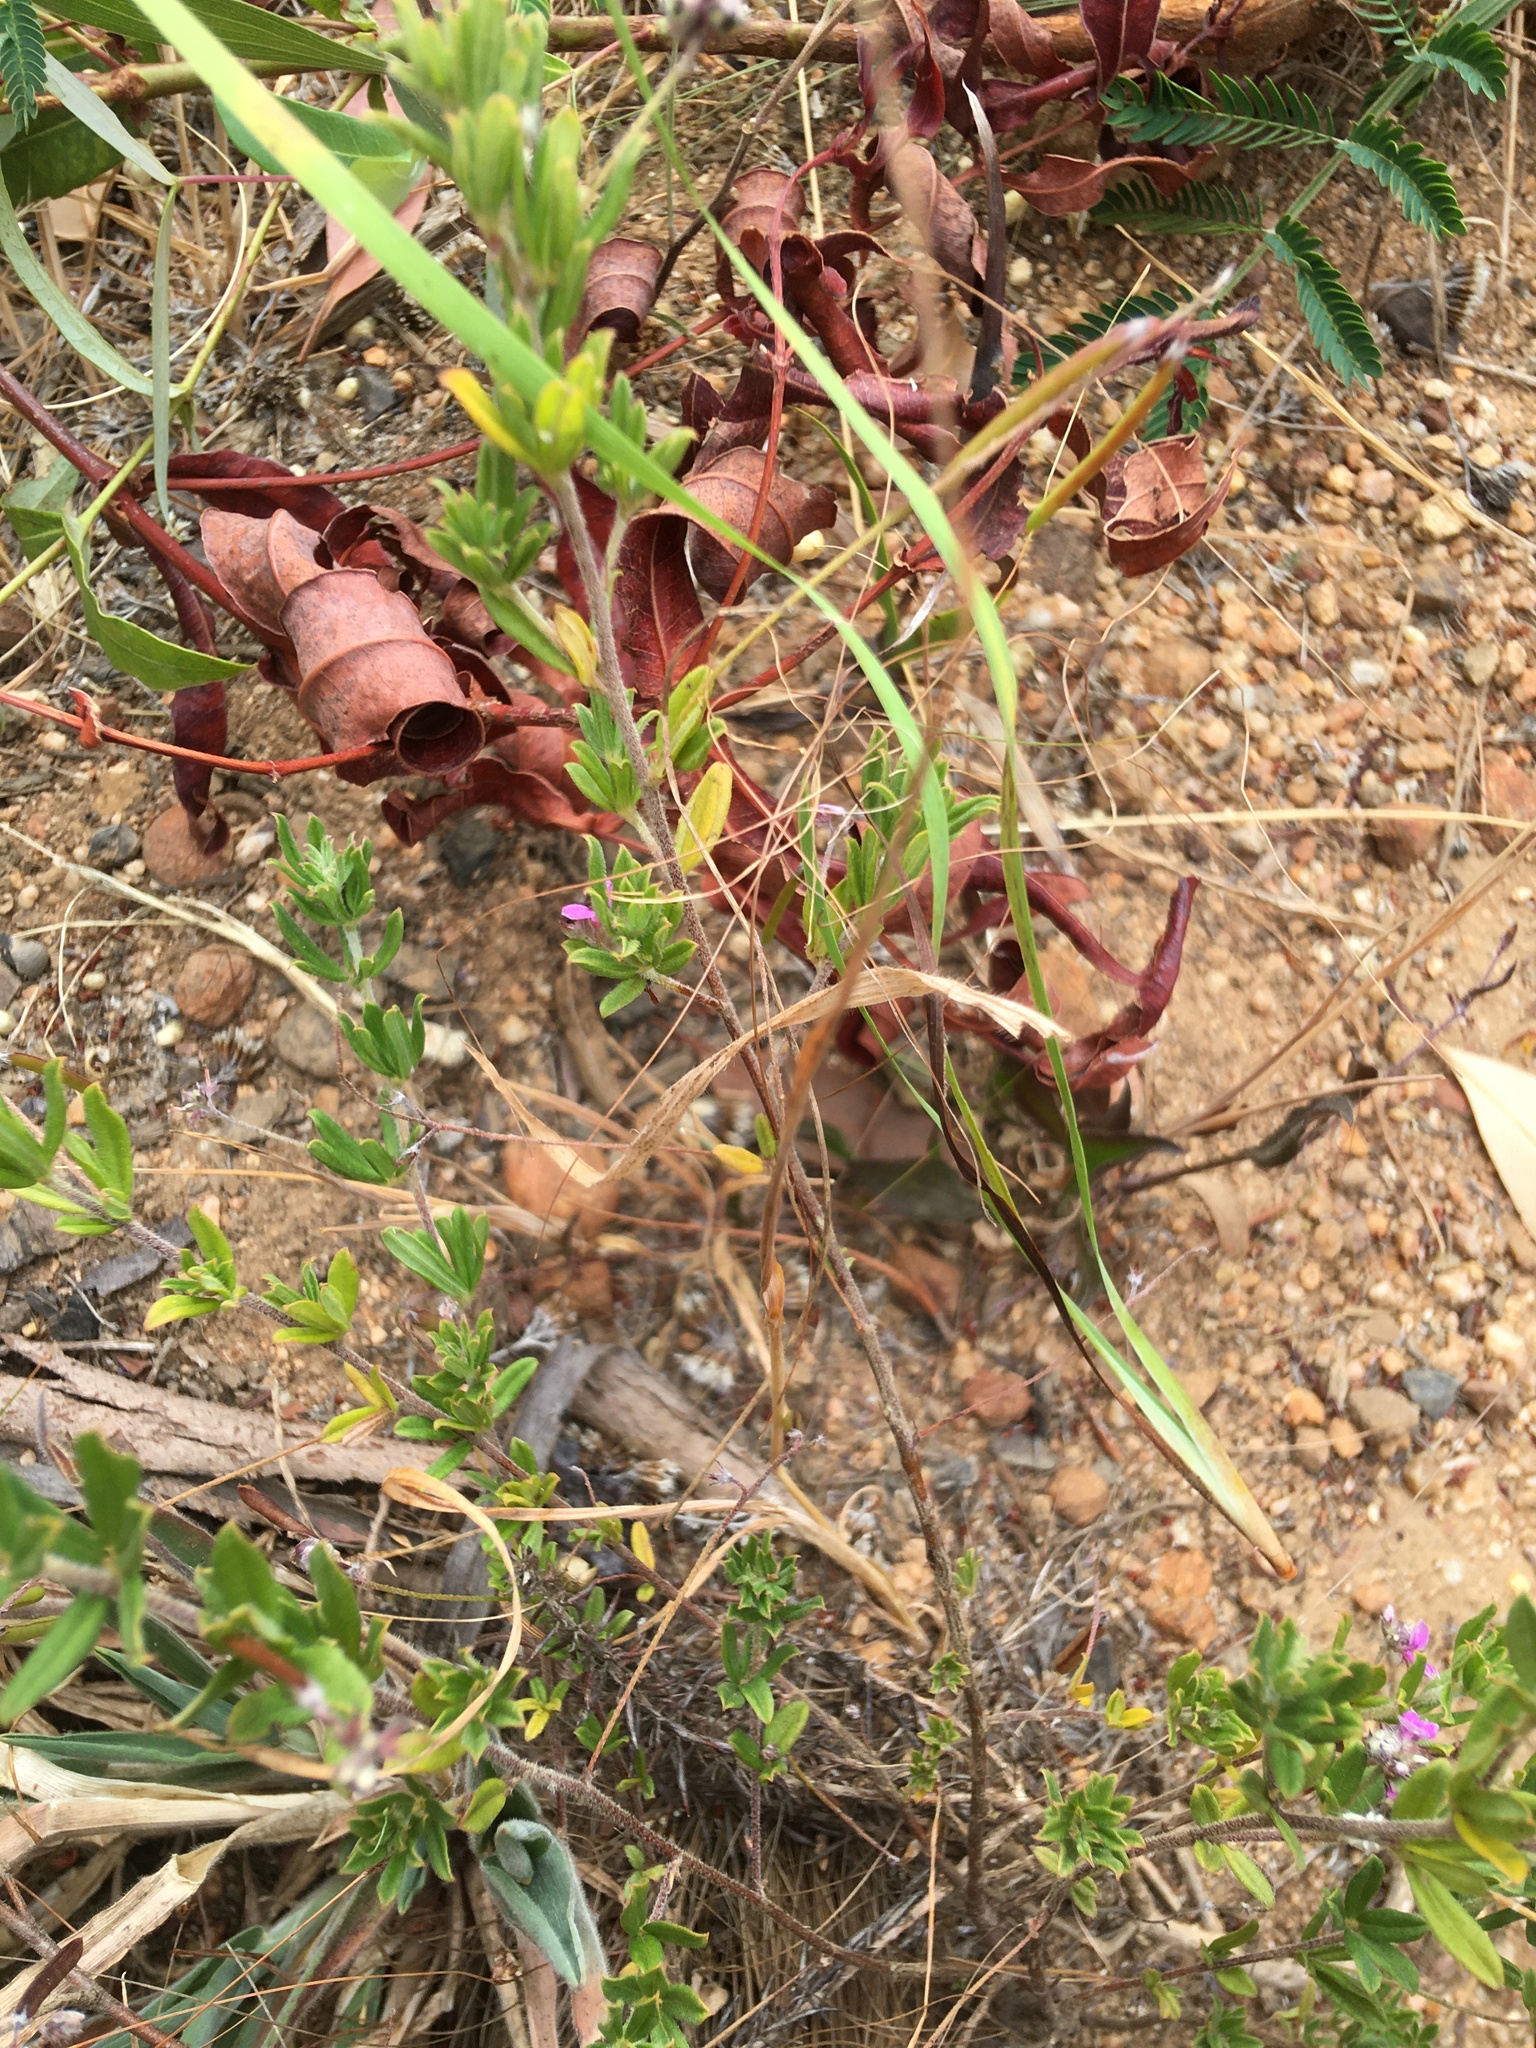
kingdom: Plantae
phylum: Tracheophyta
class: Magnoliopsida
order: Fabales
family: Fabaceae
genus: Indigofera
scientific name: Indigofera filiformis
